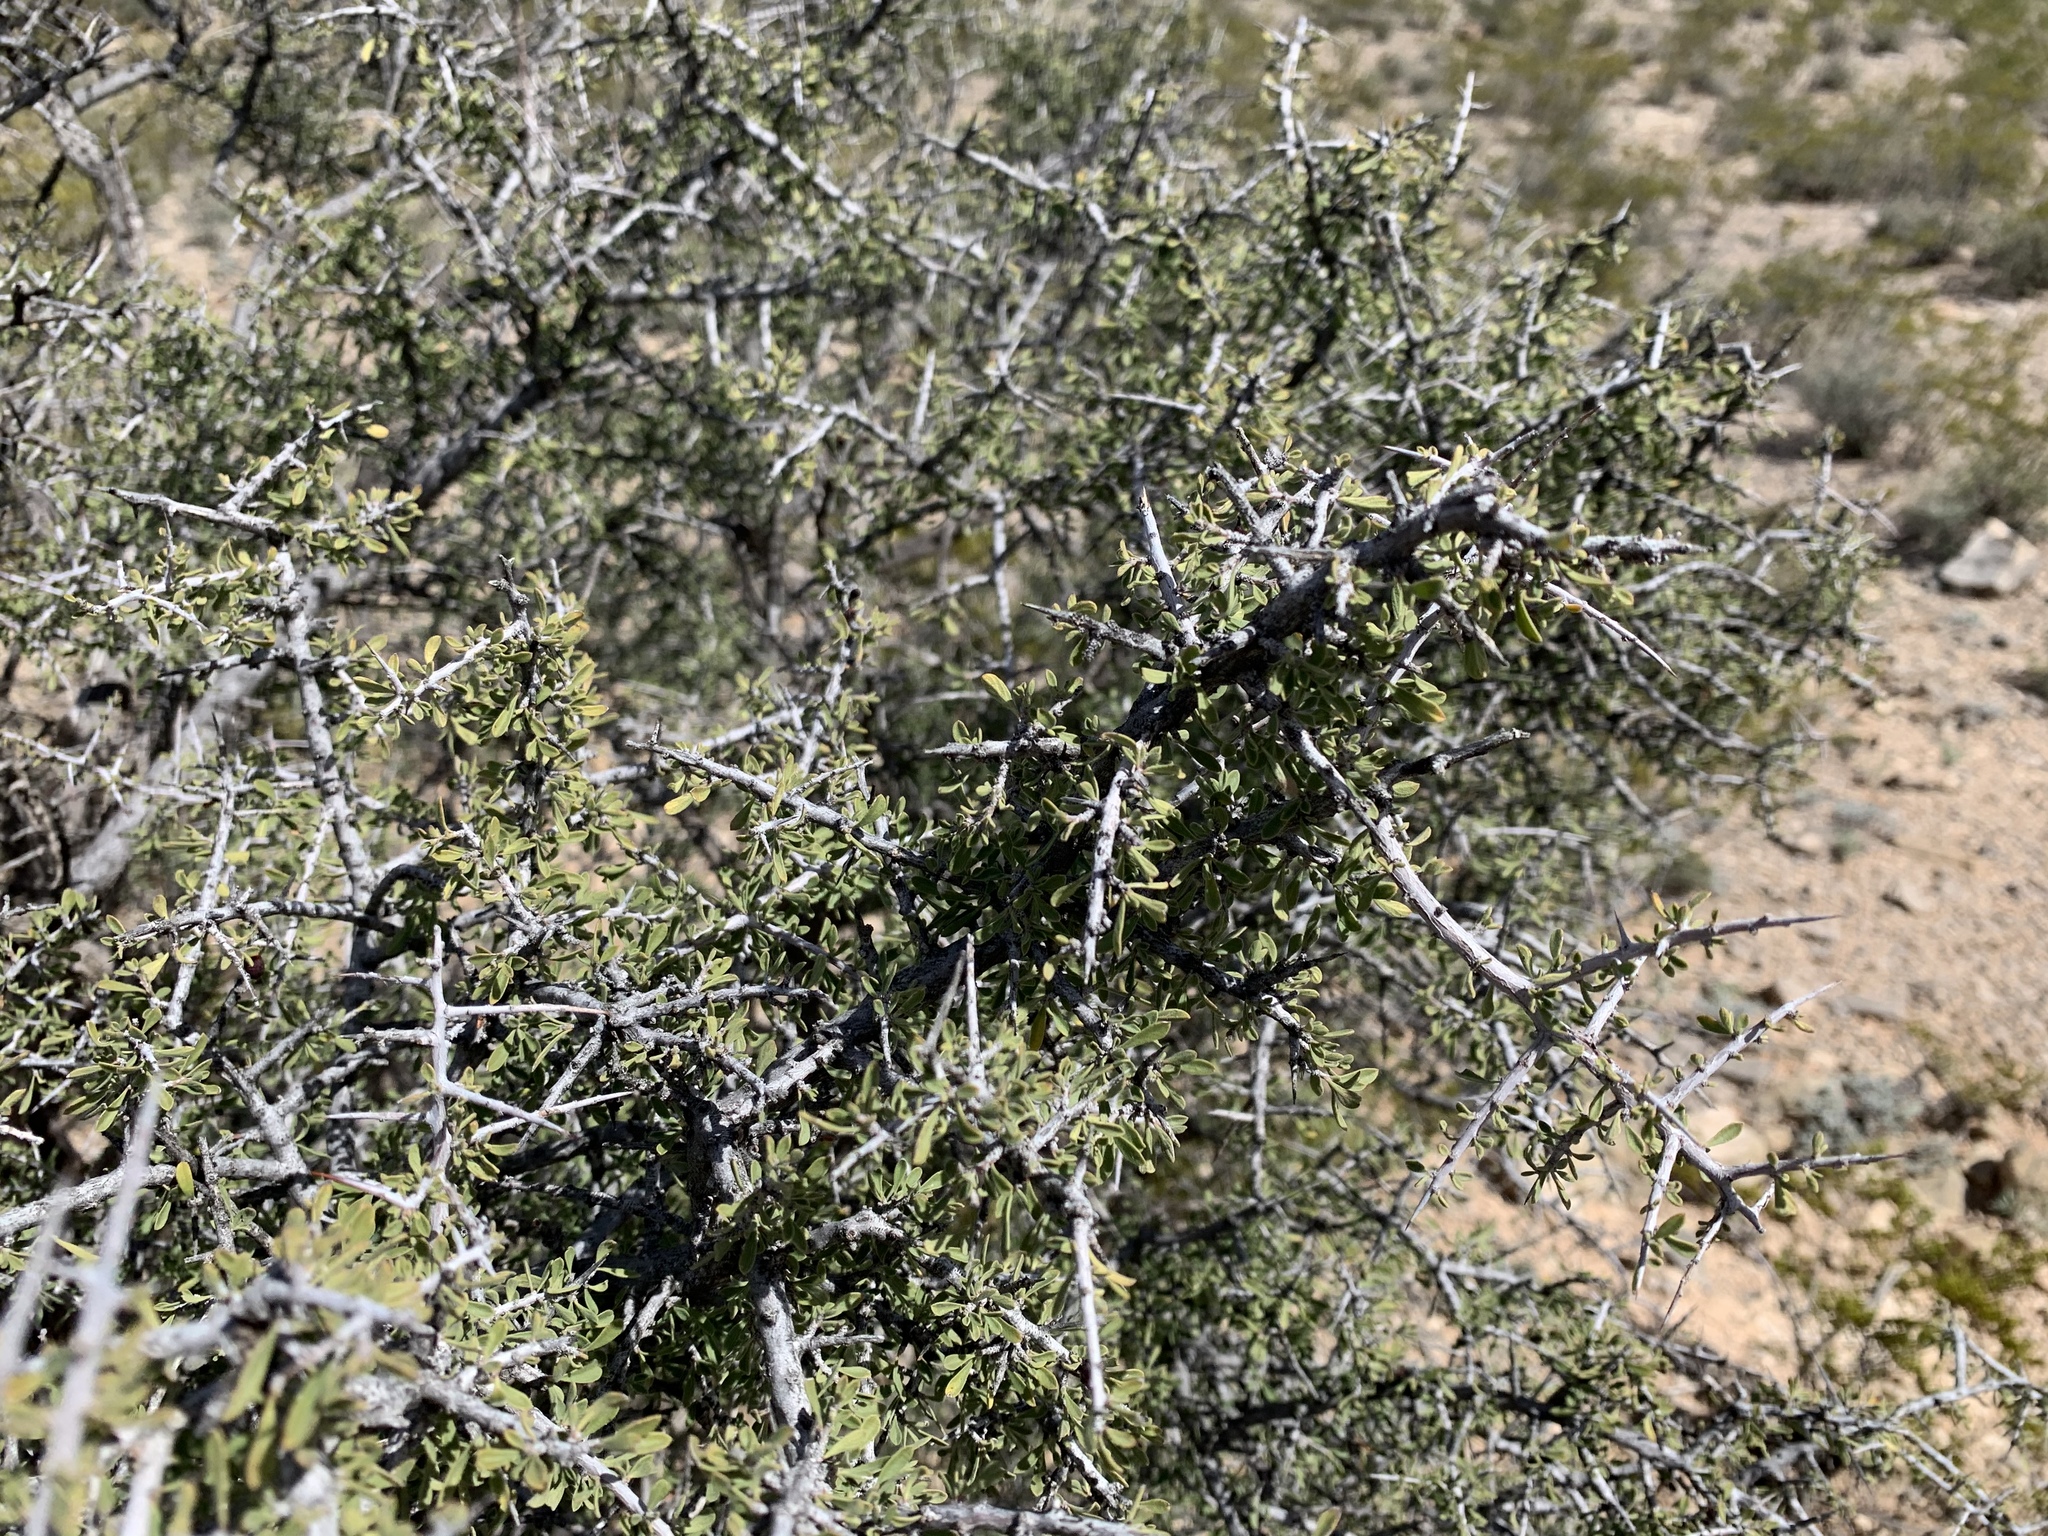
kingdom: Plantae
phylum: Tracheophyta
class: Magnoliopsida
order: Rosales
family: Rhamnaceae
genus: Condalia
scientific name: Condalia warnockii
